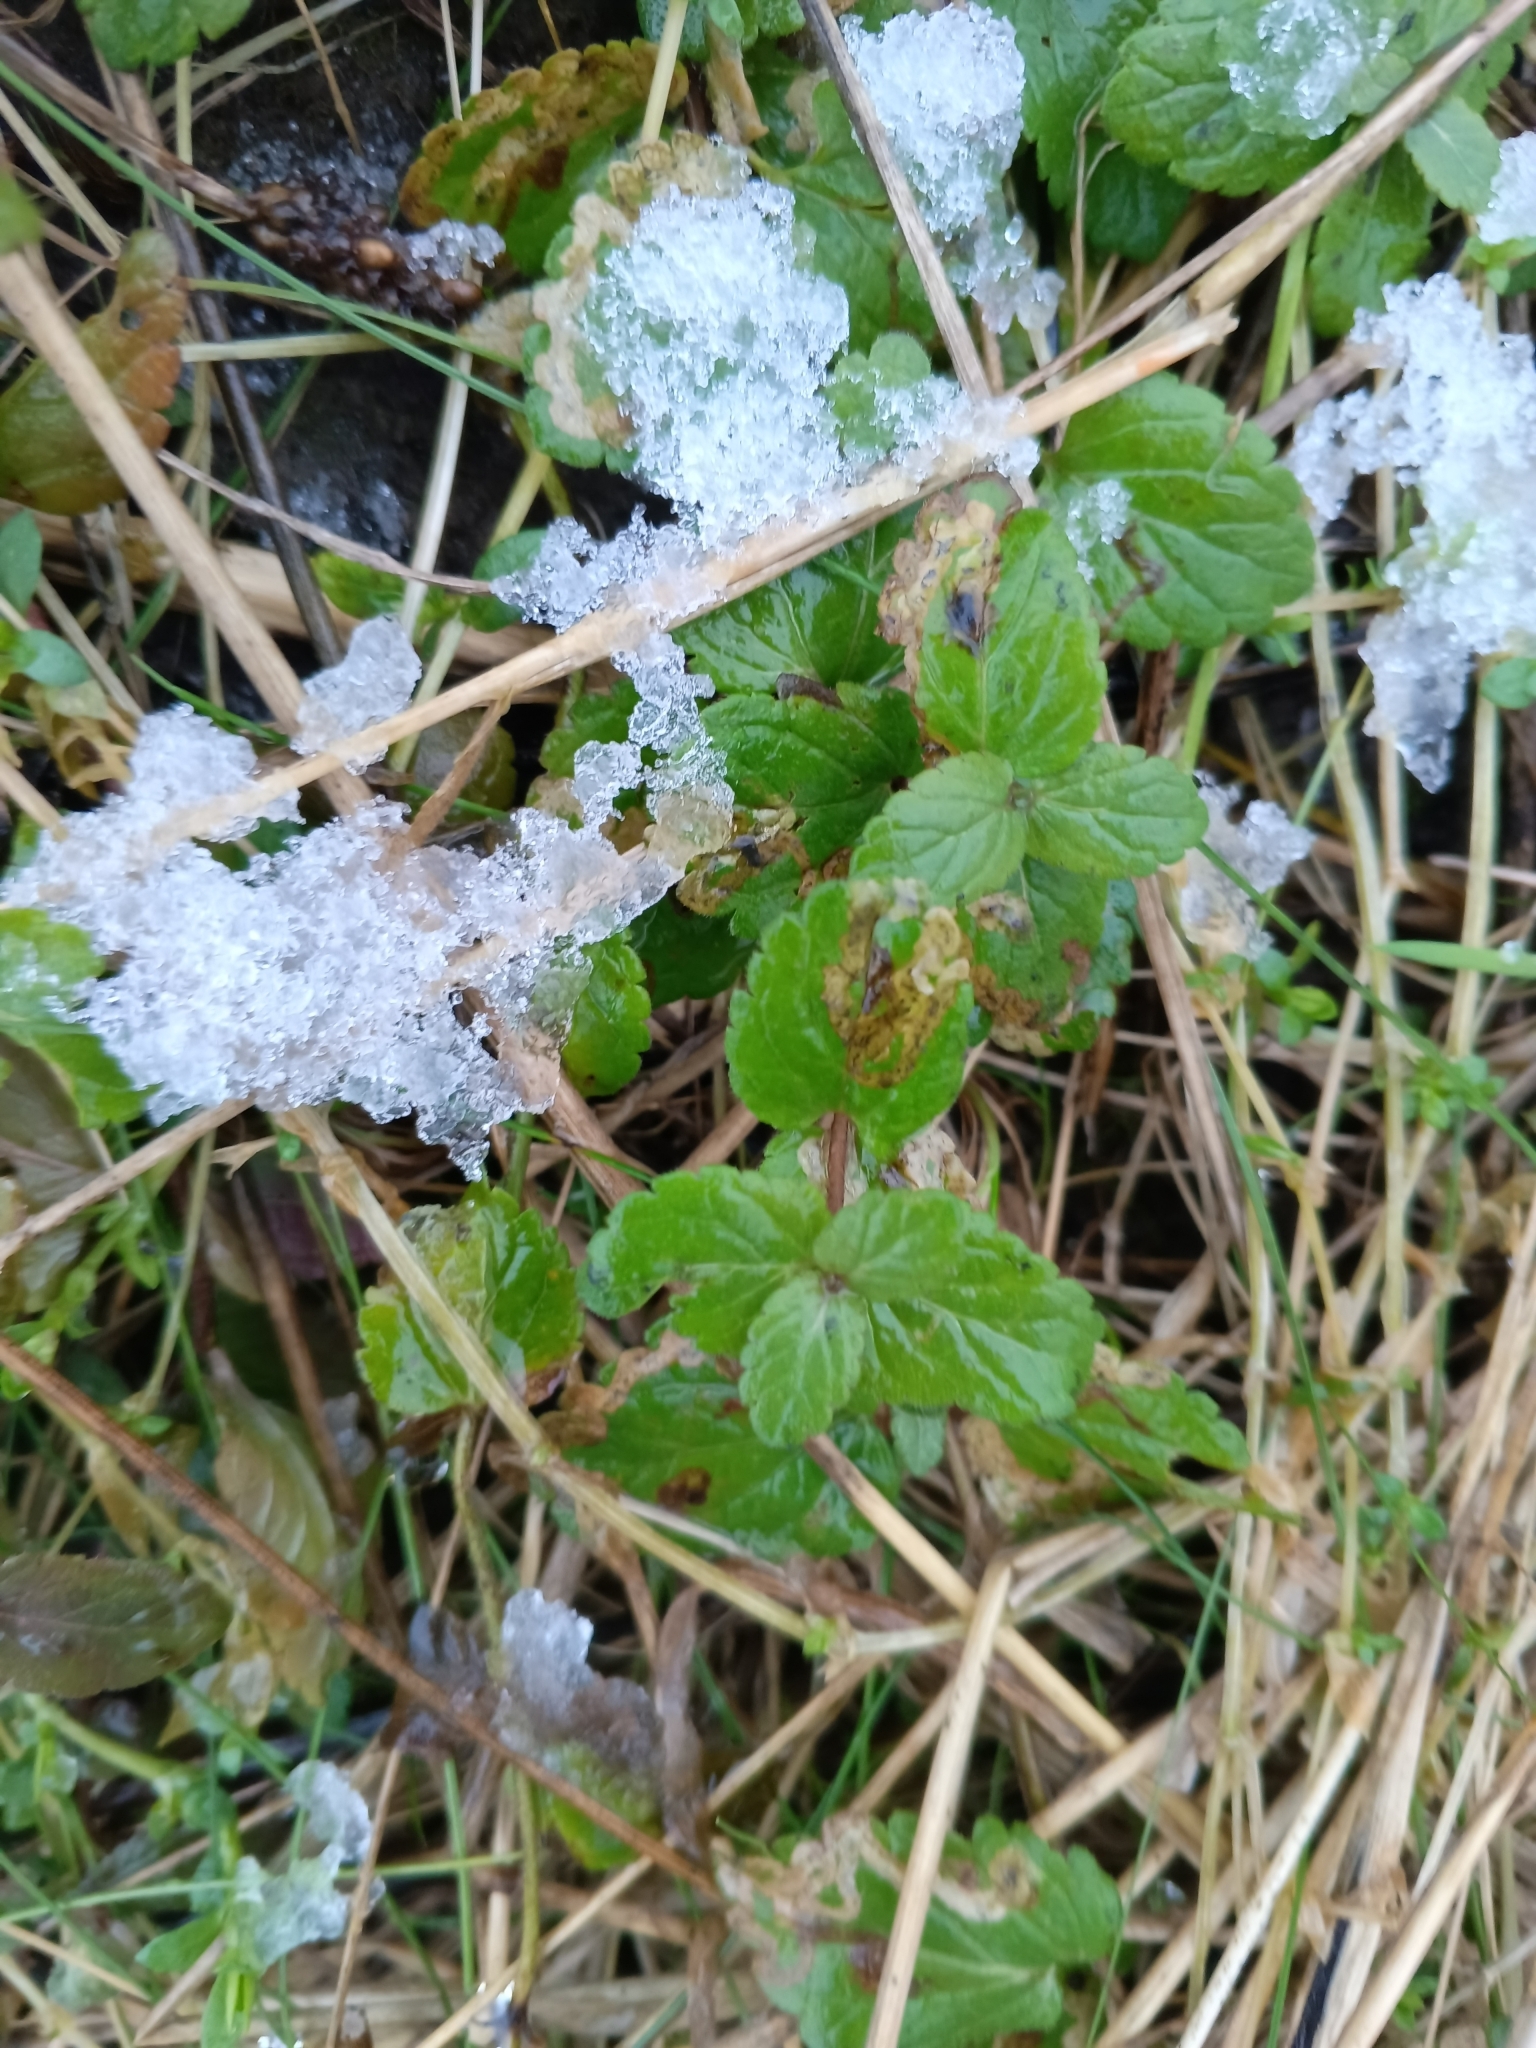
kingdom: Plantae
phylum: Tracheophyta
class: Magnoliopsida
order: Lamiales
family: Plantaginaceae
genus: Veronica
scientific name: Veronica chamaedrys
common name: Germander speedwell
